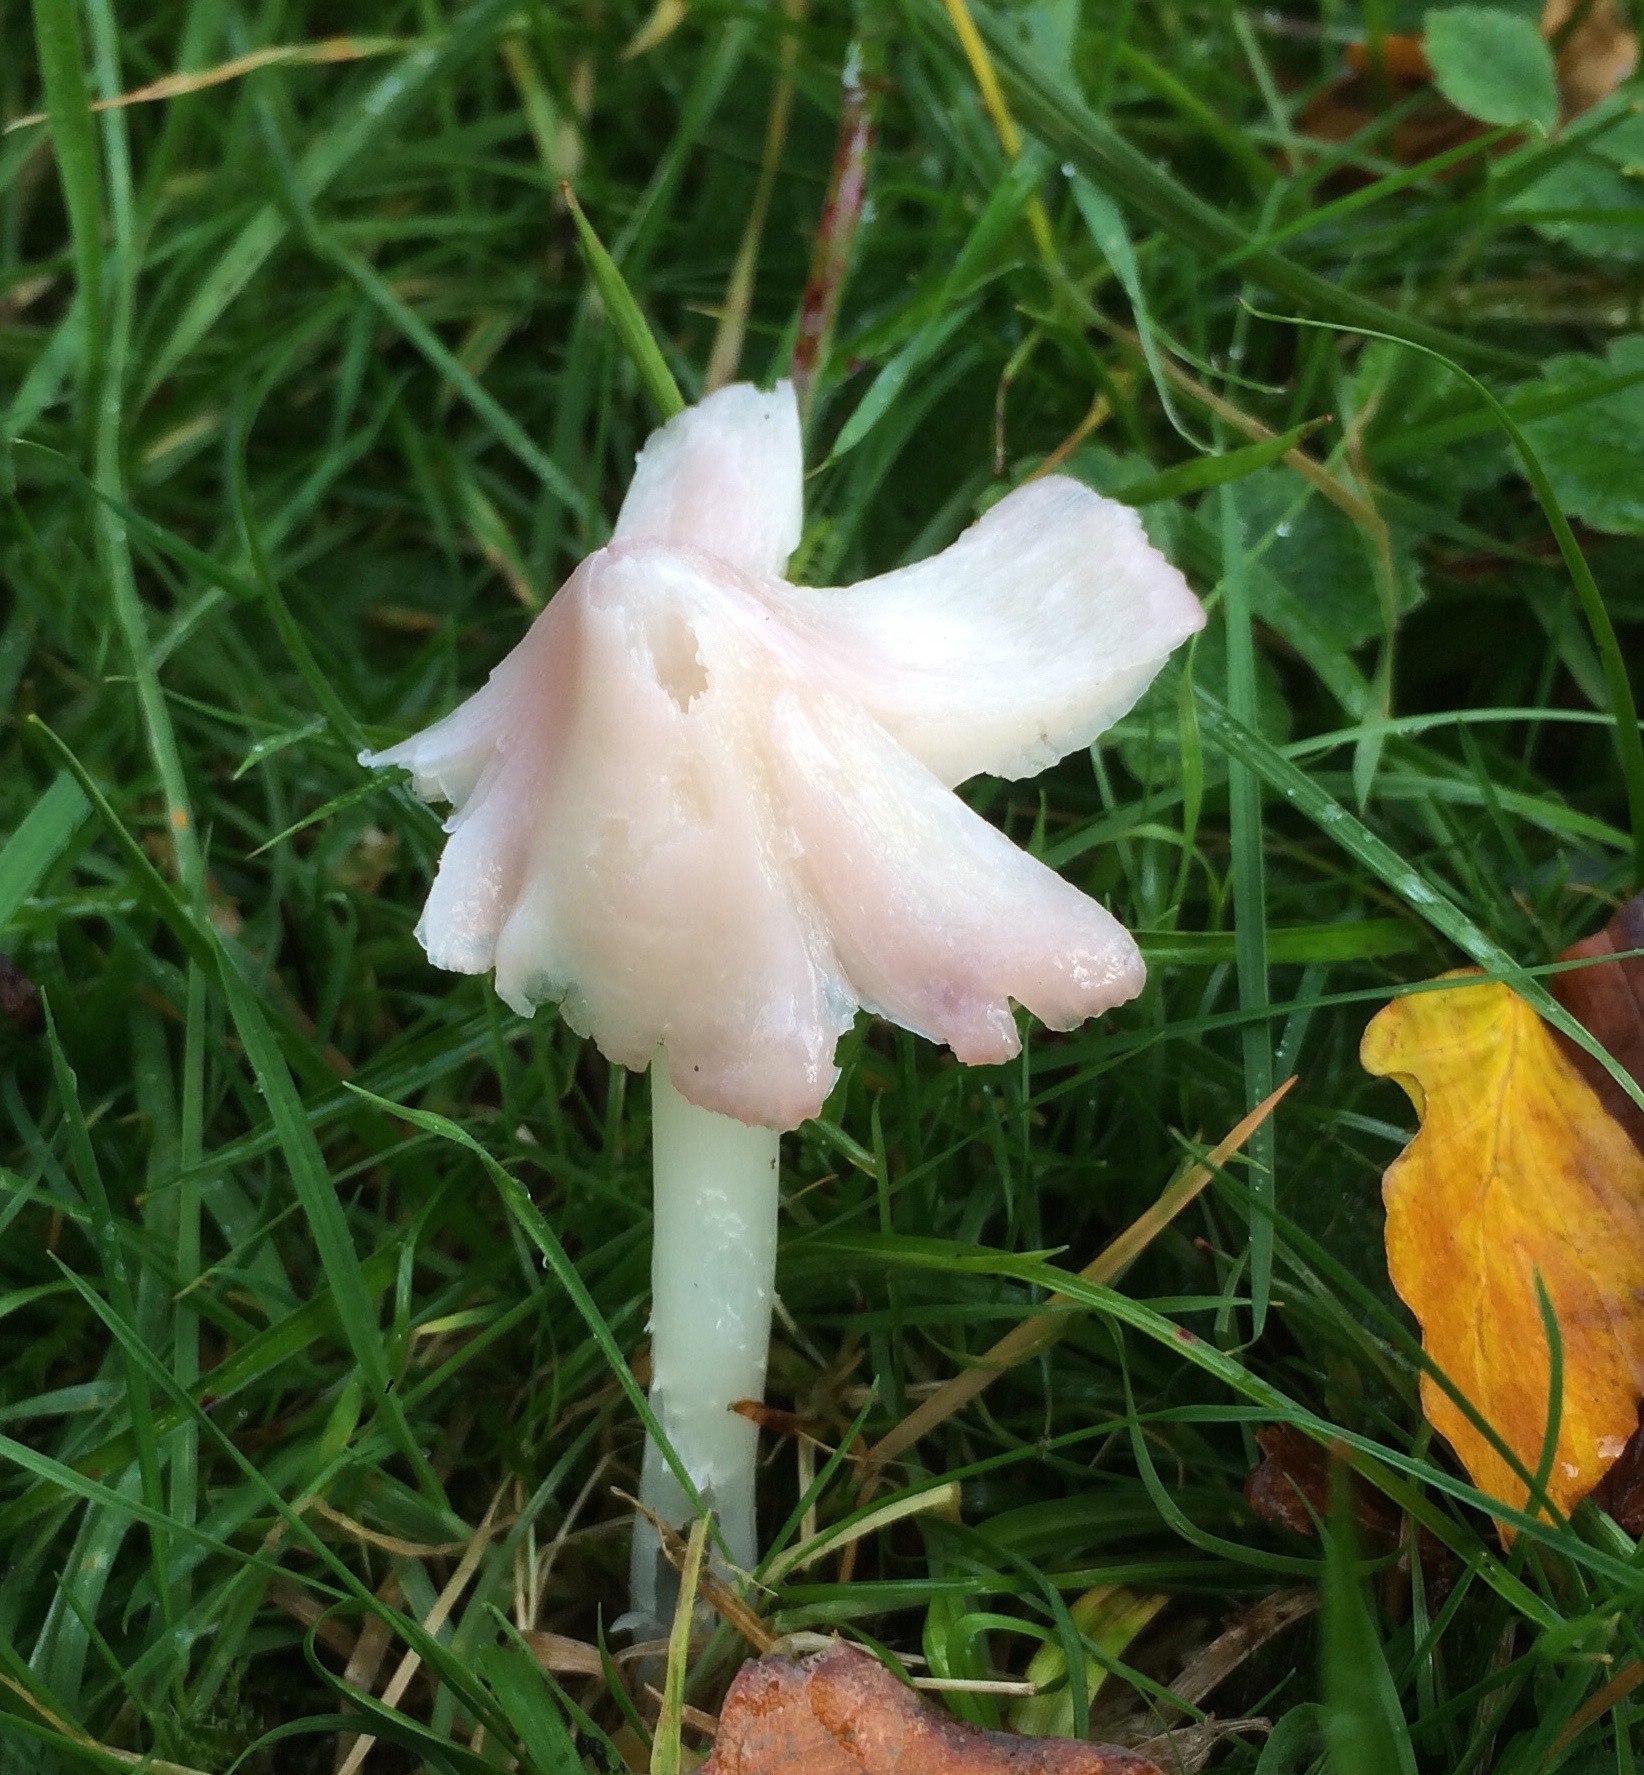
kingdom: Fungi
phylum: Basidiomycota
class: Agaricomycetes
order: Agaricales
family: Hygrophoraceae
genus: Porpolomopsis
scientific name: Porpolomopsis calyptriformis
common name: Pink waxcap
